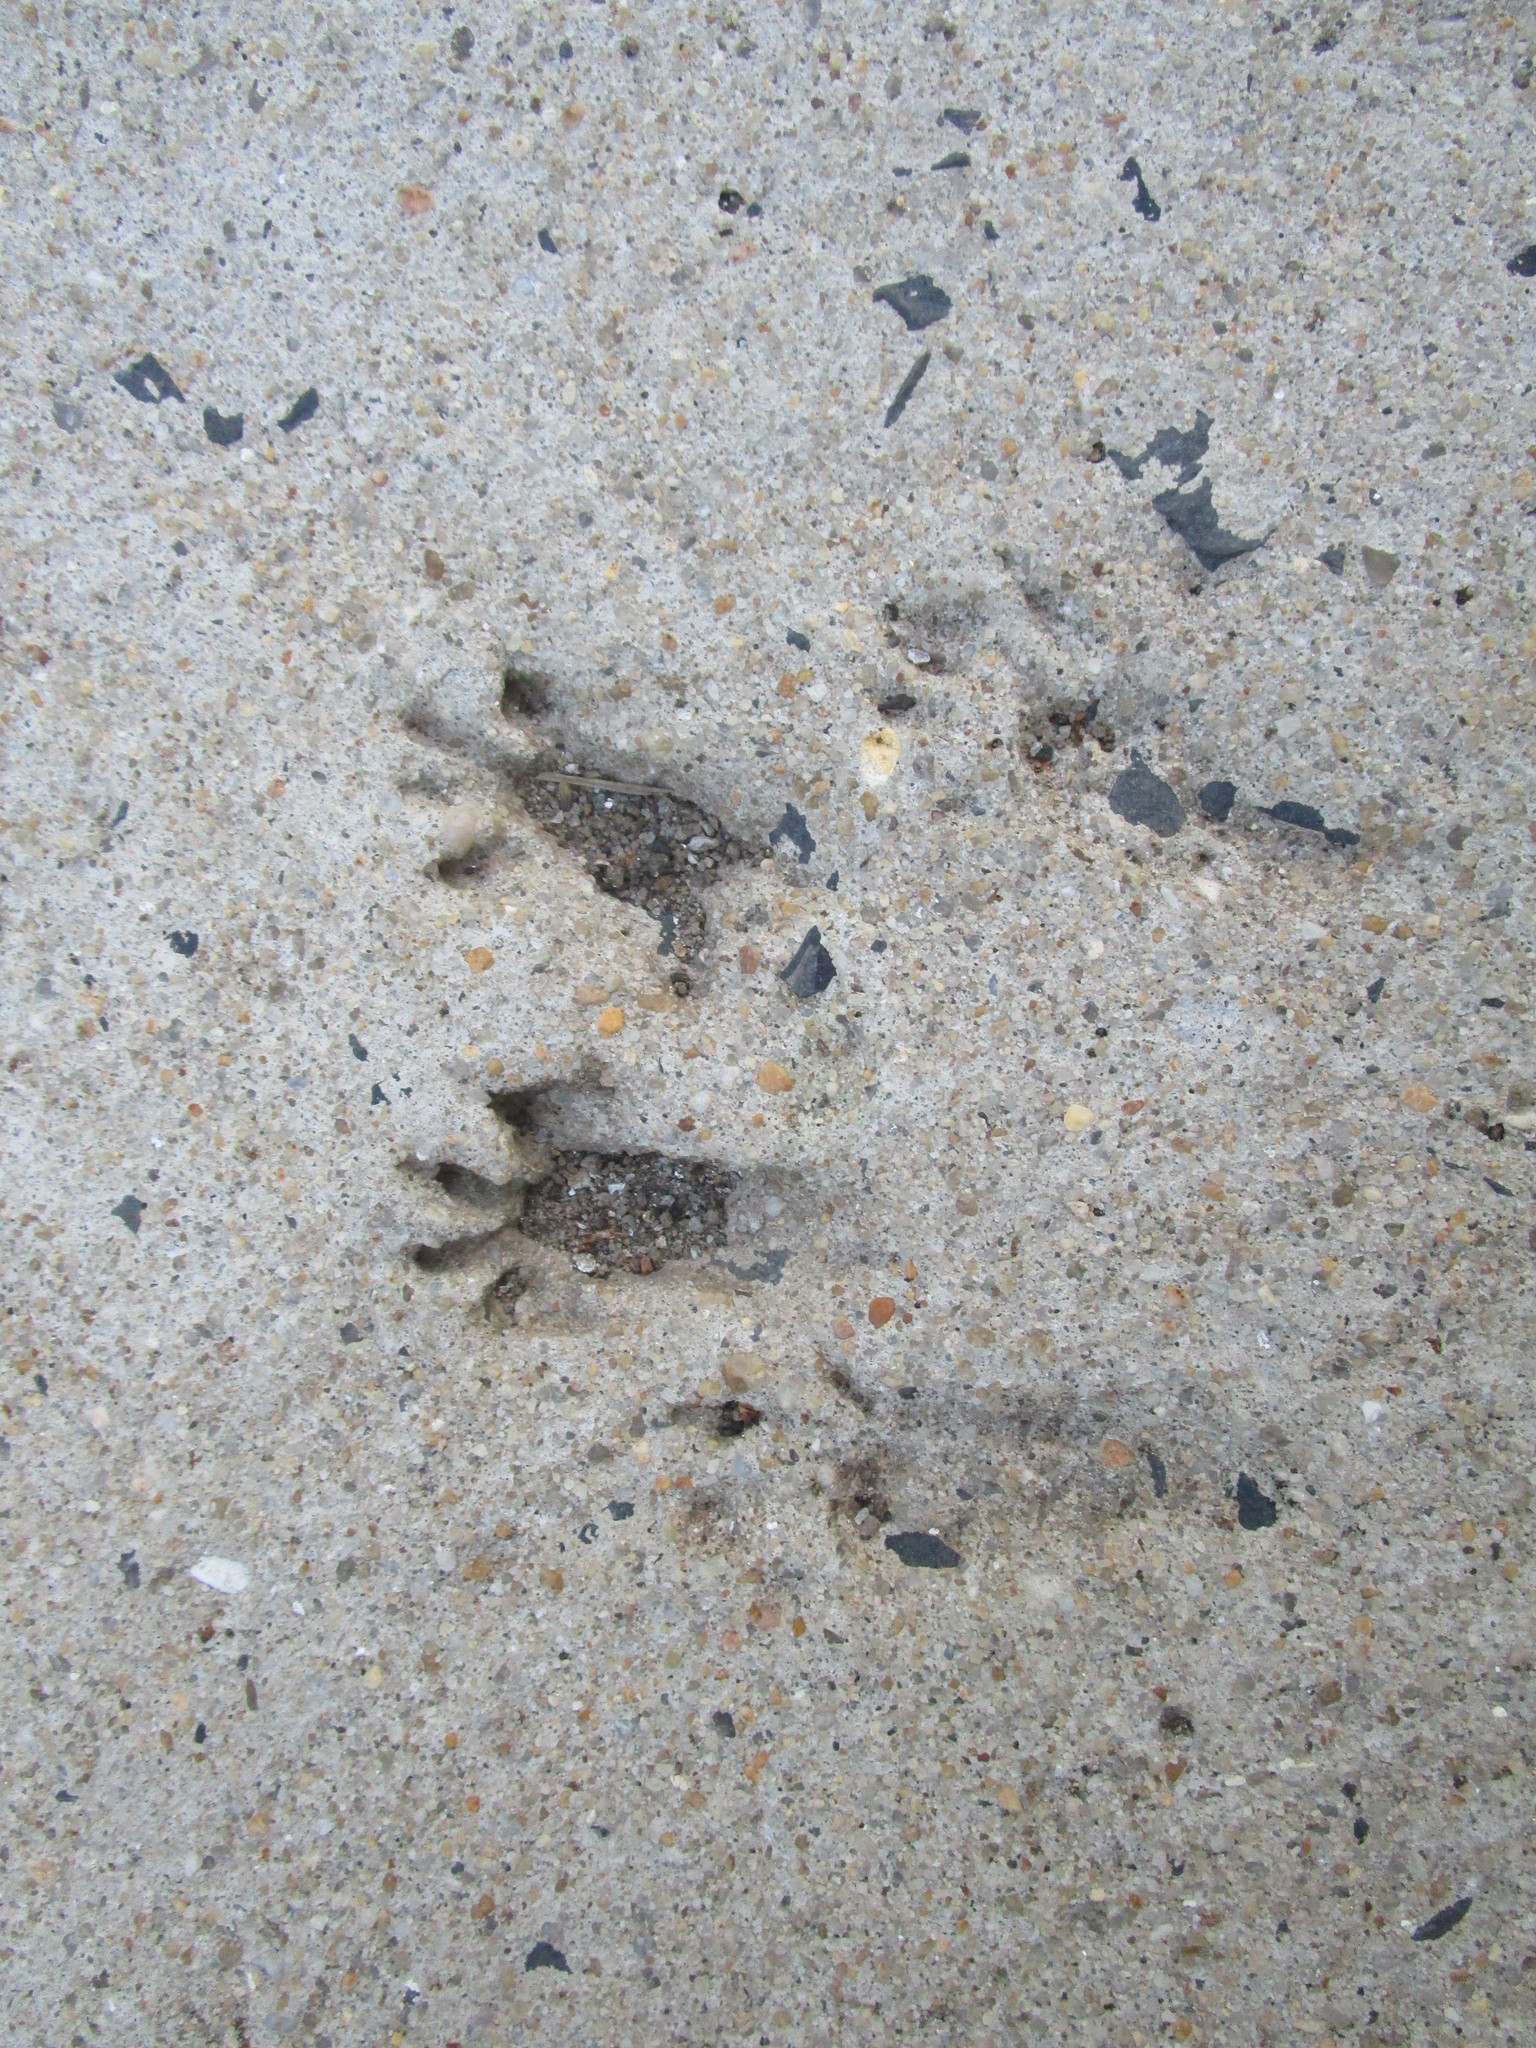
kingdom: Animalia
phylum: Chordata
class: Mammalia
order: Rodentia
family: Sciuridae
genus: Sciurus
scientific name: Sciurus carolinensis
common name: Eastern gray squirrel
